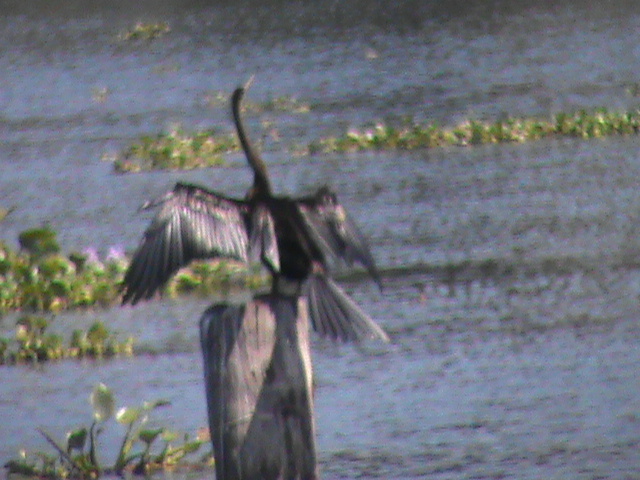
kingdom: Animalia
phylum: Chordata
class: Aves
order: Suliformes
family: Anhingidae
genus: Anhinga
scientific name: Anhinga melanogaster
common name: Oriental darter
